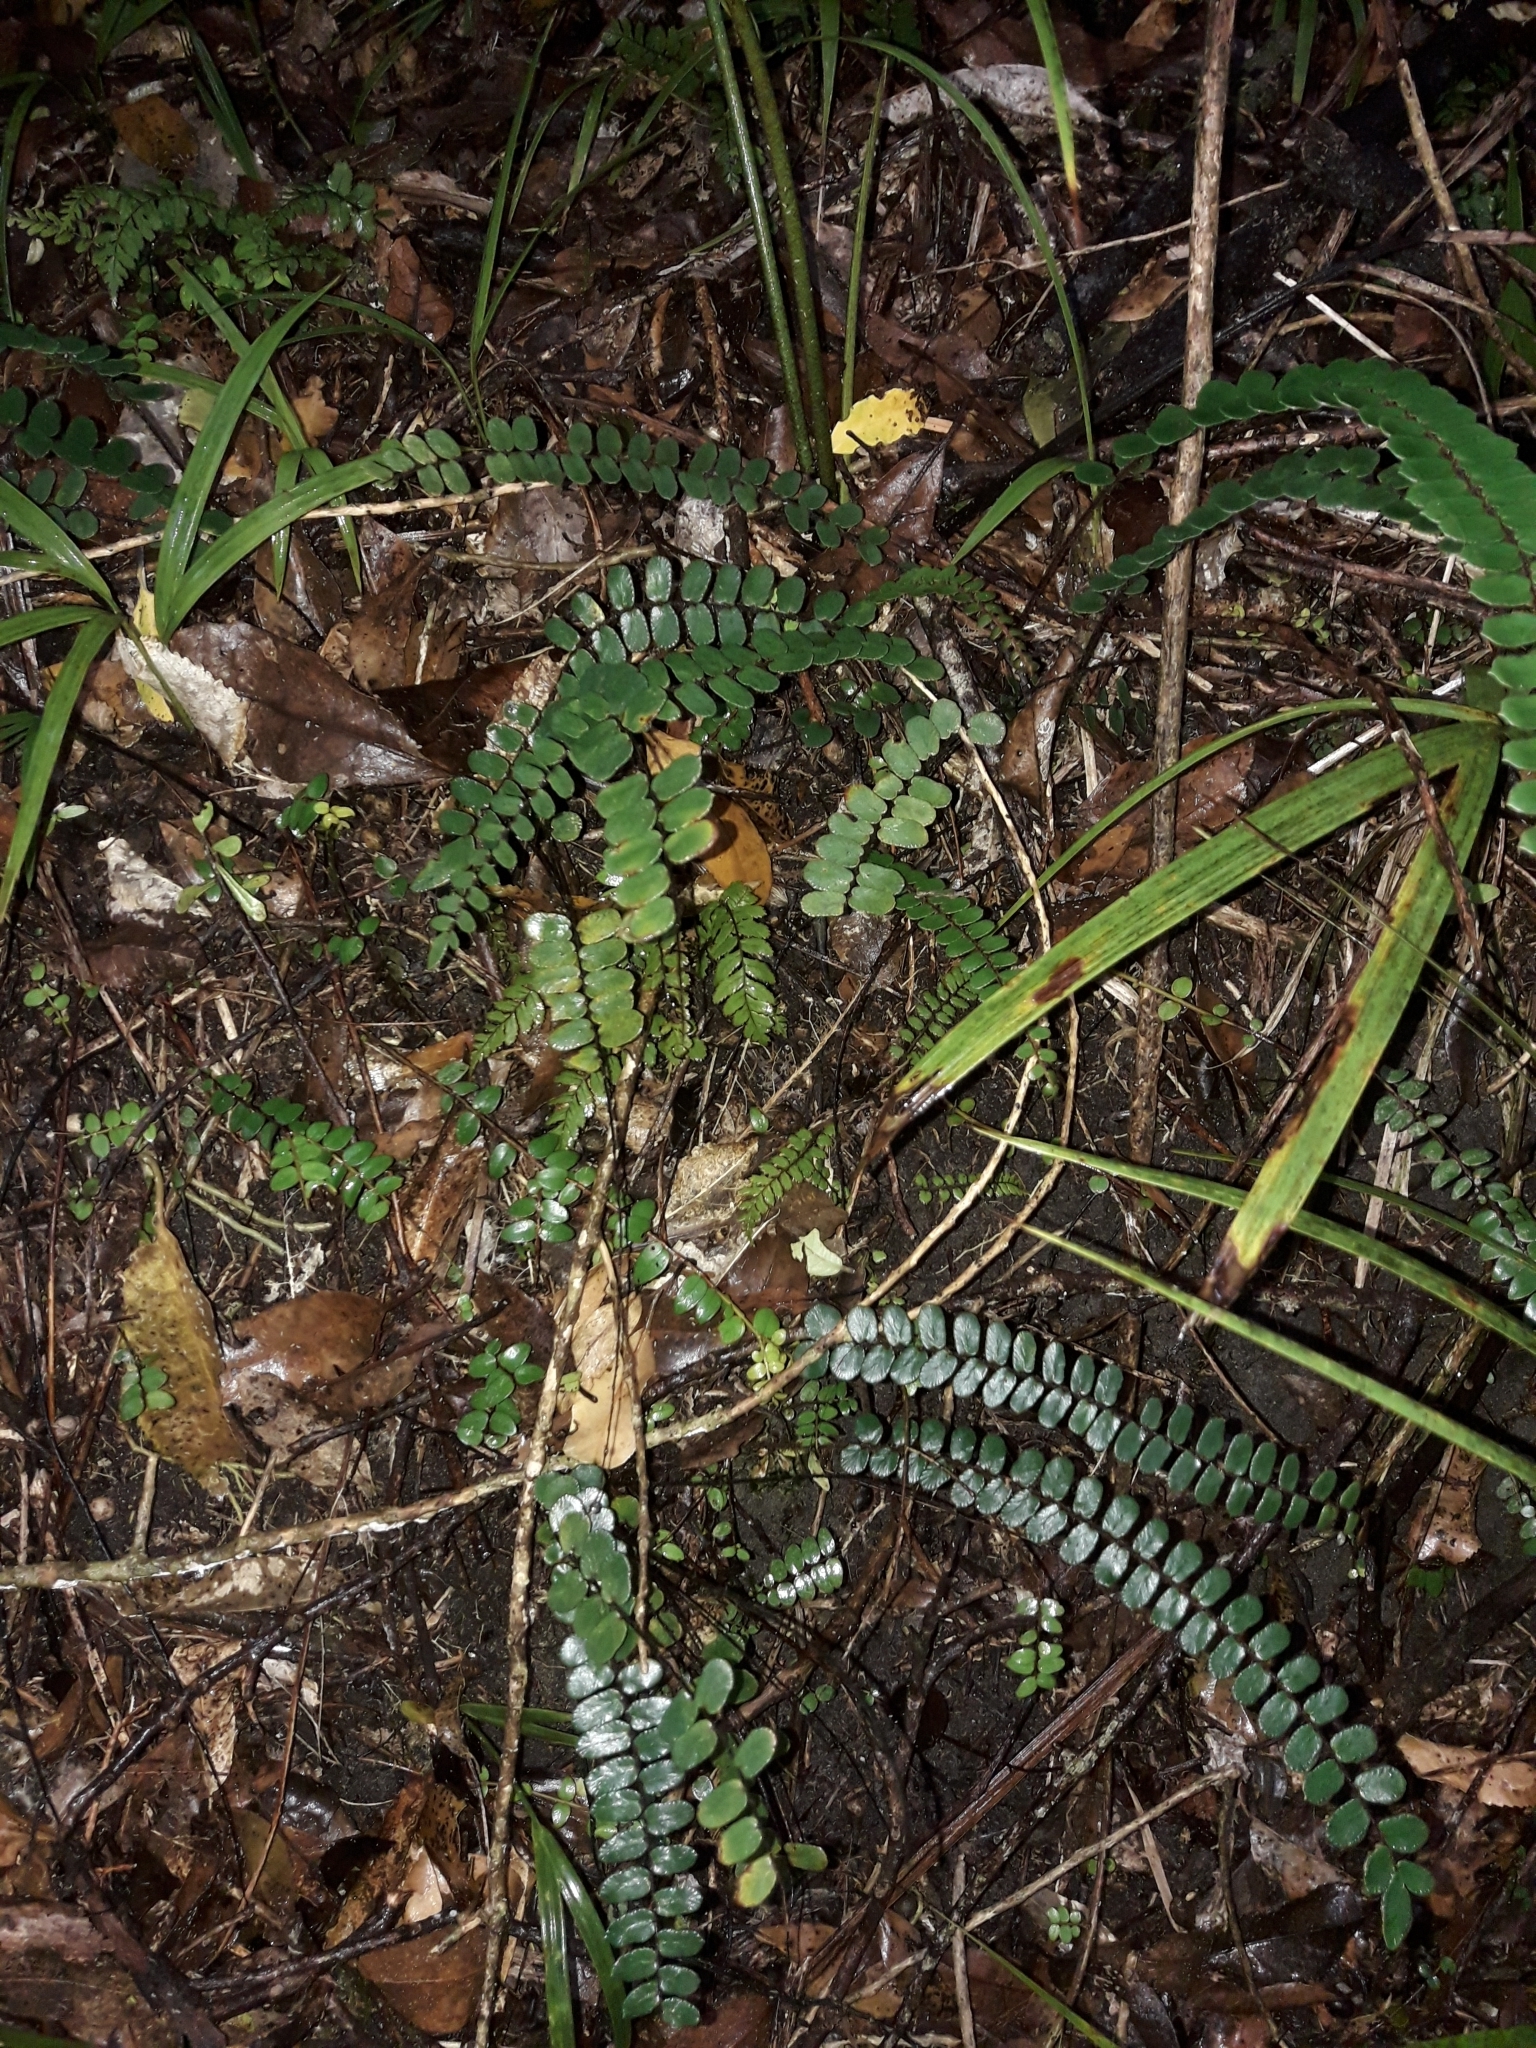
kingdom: Plantae
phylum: Tracheophyta
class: Polypodiopsida
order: Polypodiales
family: Pteridaceae
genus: Pellaea
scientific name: Pellaea rotundifolia
